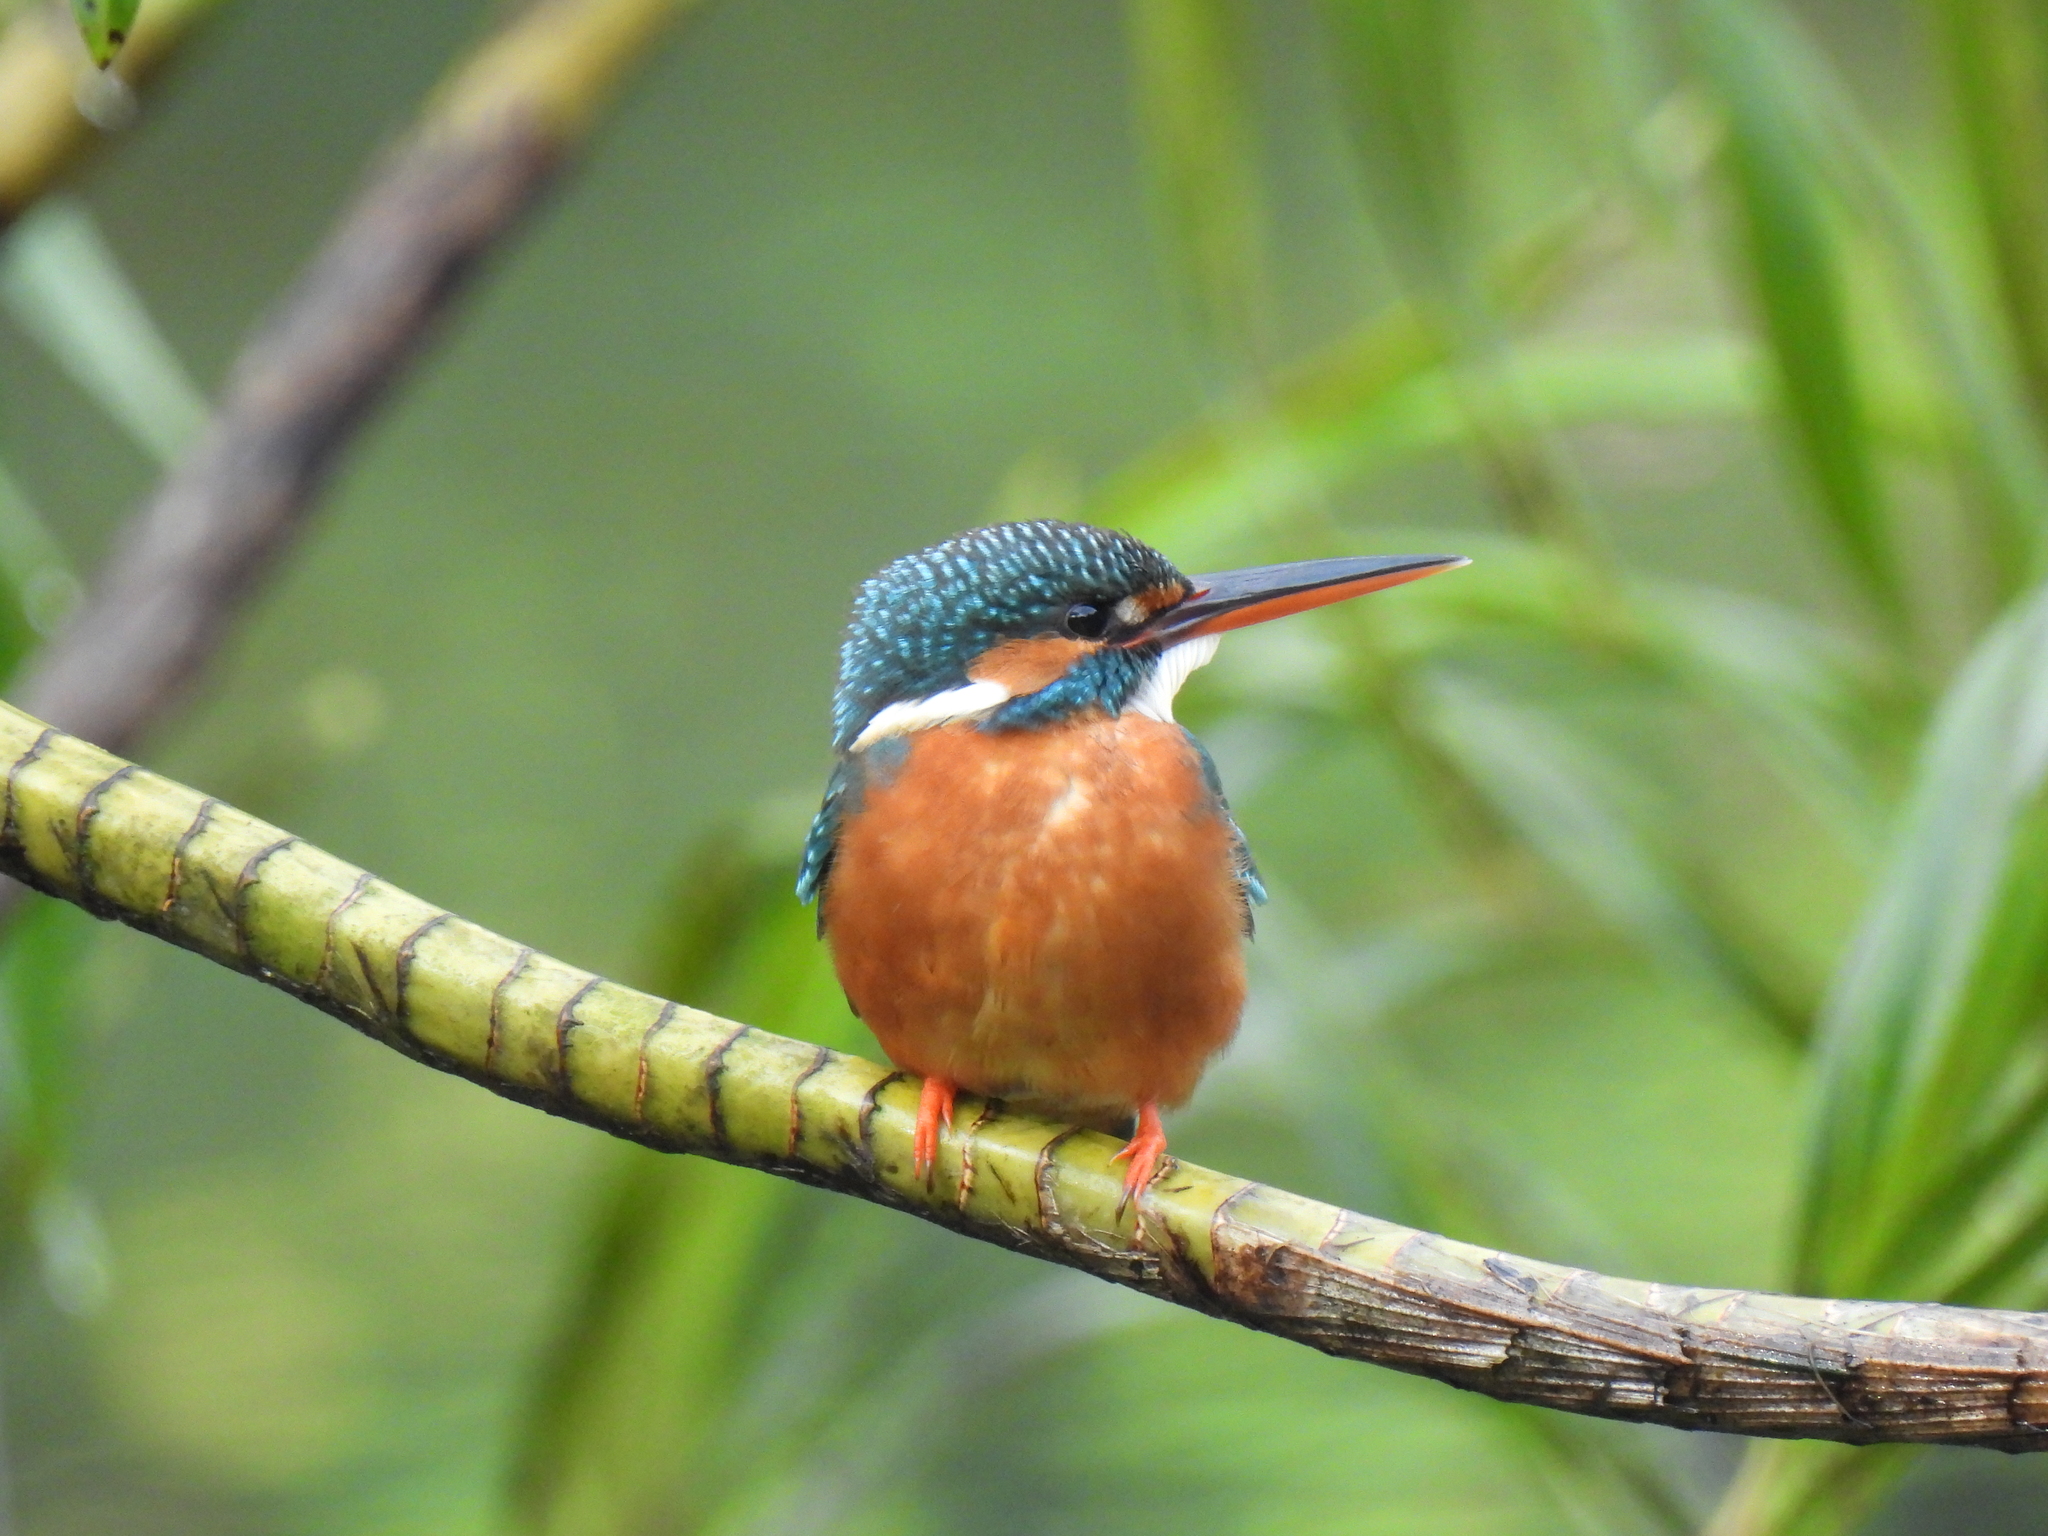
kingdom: Animalia
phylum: Chordata
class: Aves
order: Coraciiformes
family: Alcedinidae
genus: Alcedo
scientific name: Alcedo atthis
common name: Common kingfisher
